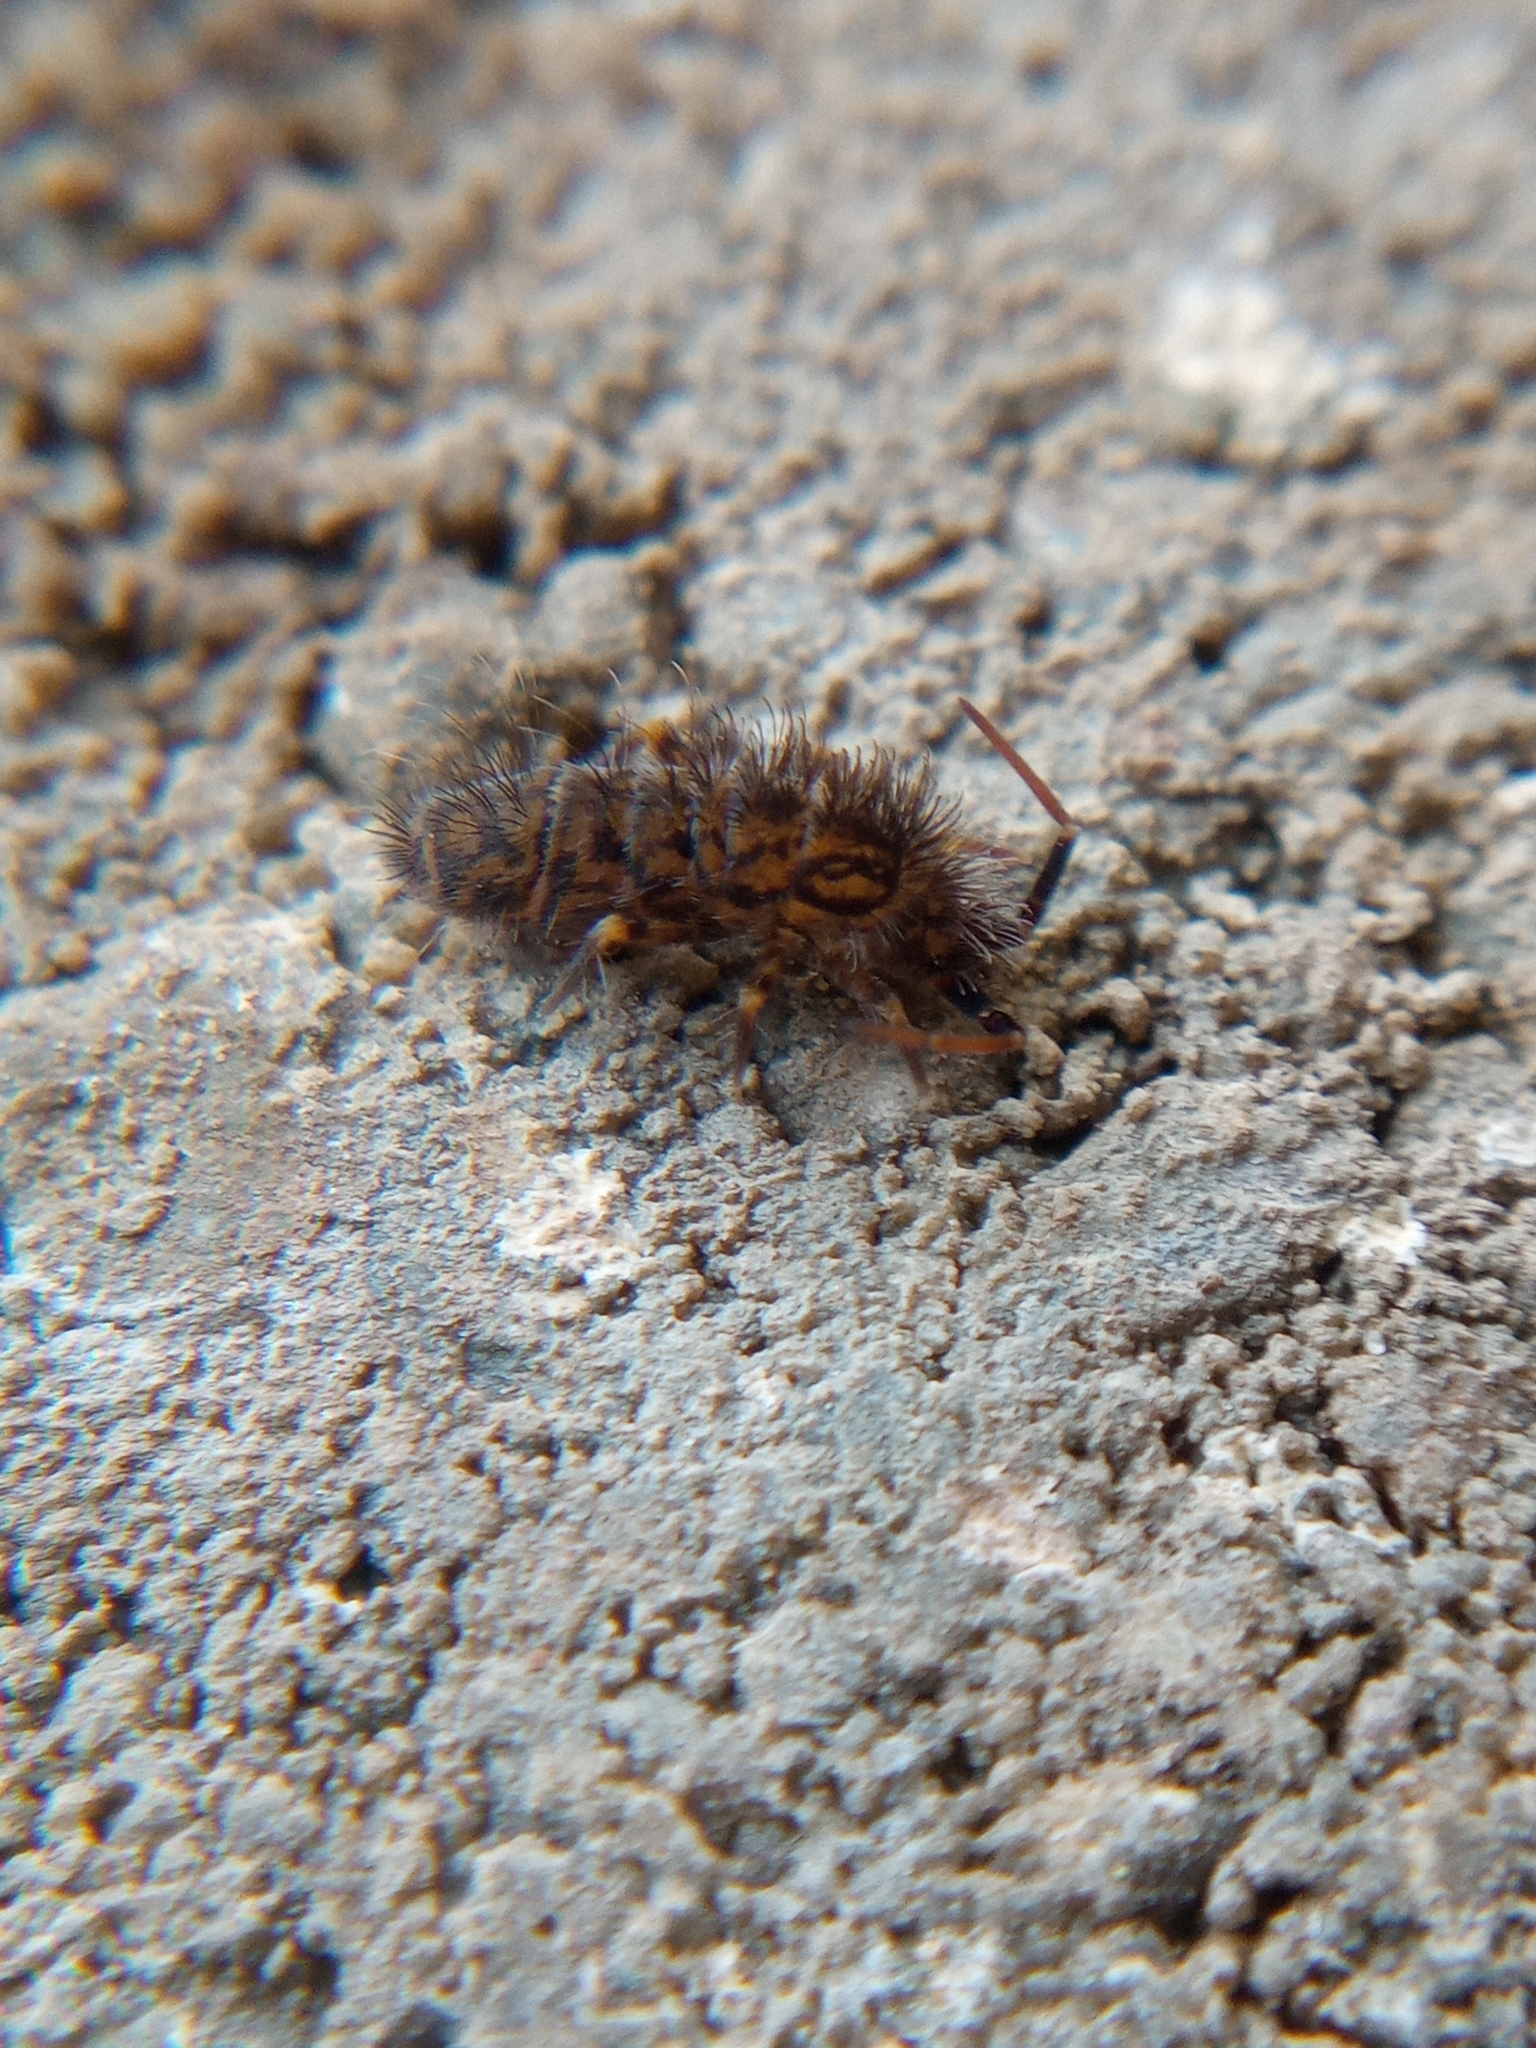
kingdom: Animalia
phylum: Arthropoda
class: Collembola
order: Entomobryomorpha
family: Orchesellidae
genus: Orchesella
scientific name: Orchesella villosa
